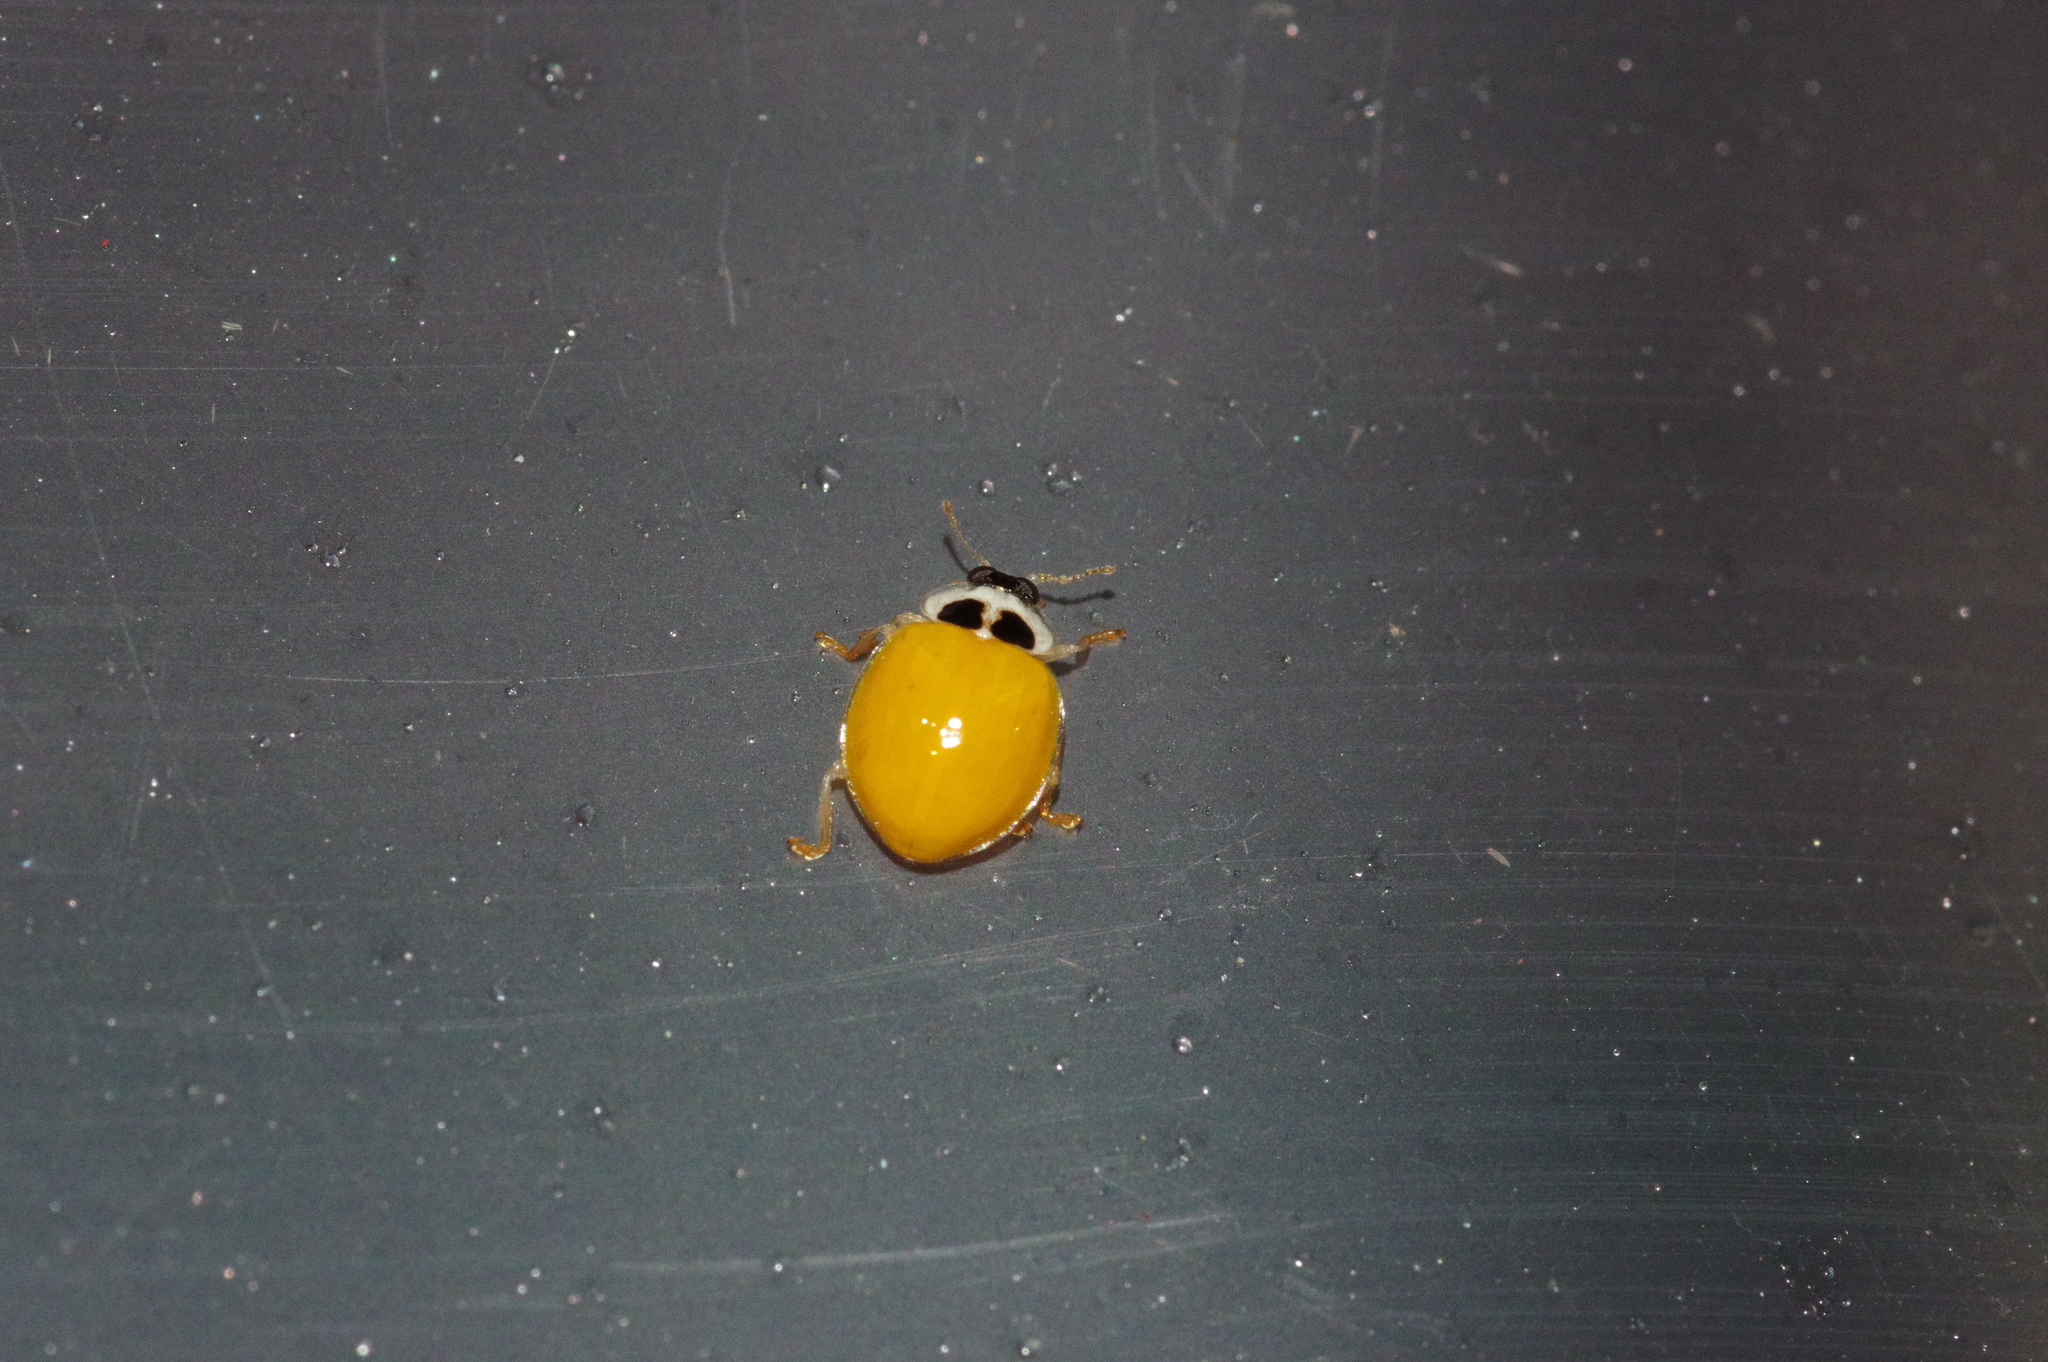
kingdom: Animalia
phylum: Arthropoda
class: Insecta
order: Coleoptera
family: Coccinellidae
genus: Illeis
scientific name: Illeis koebelei
